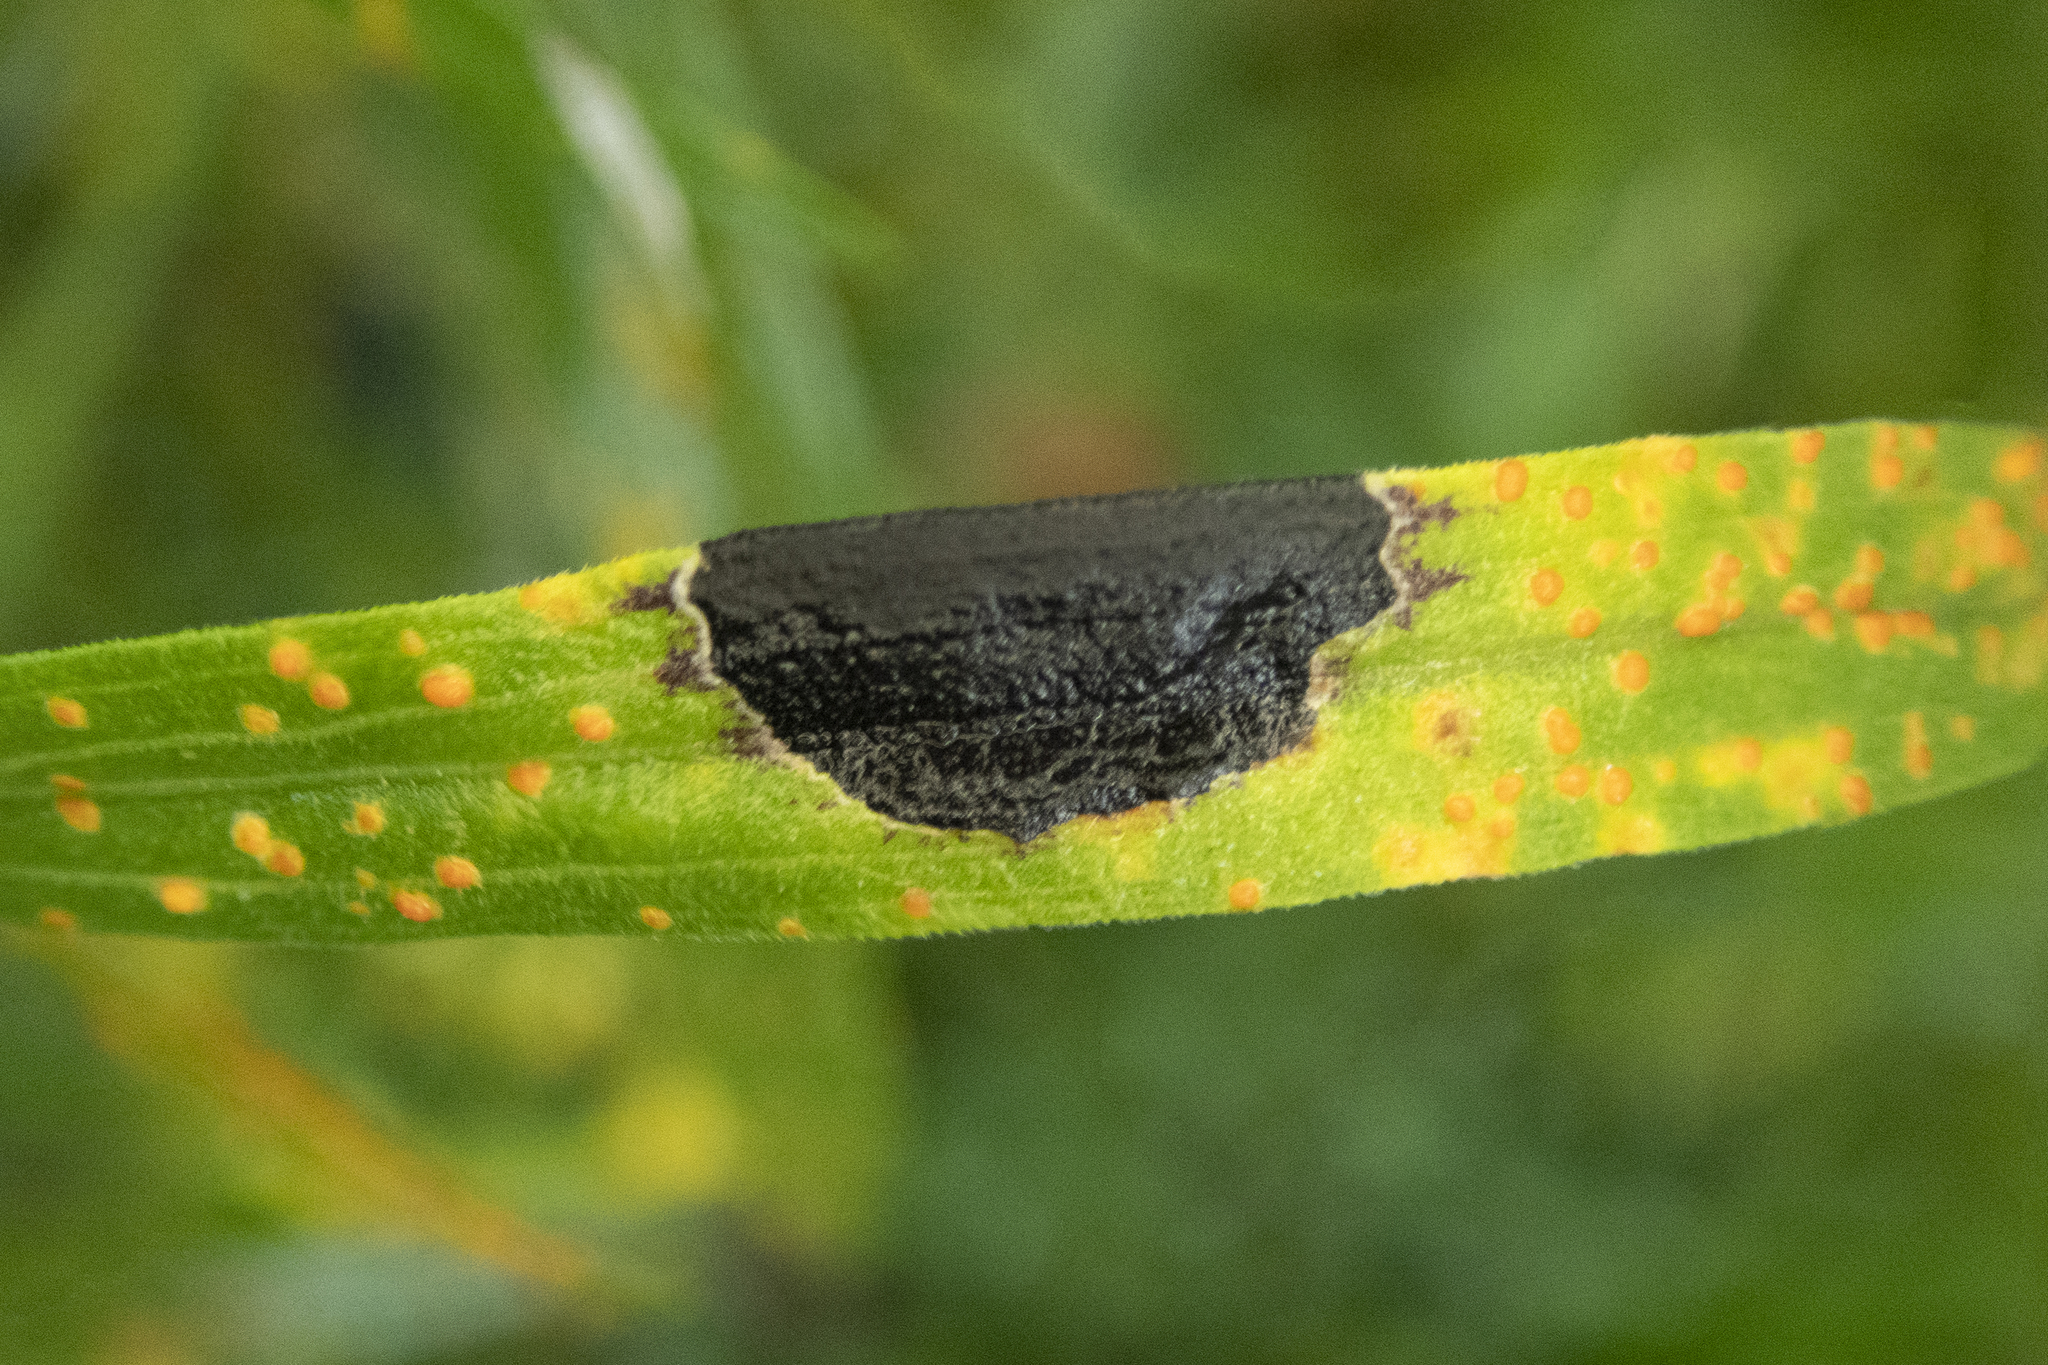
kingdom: Animalia
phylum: Arthropoda
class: Insecta
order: Diptera
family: Cecidomyiidae
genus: Asteromyia
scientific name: Asteromyia euthamiae
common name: Euthamia leaf gall midge
